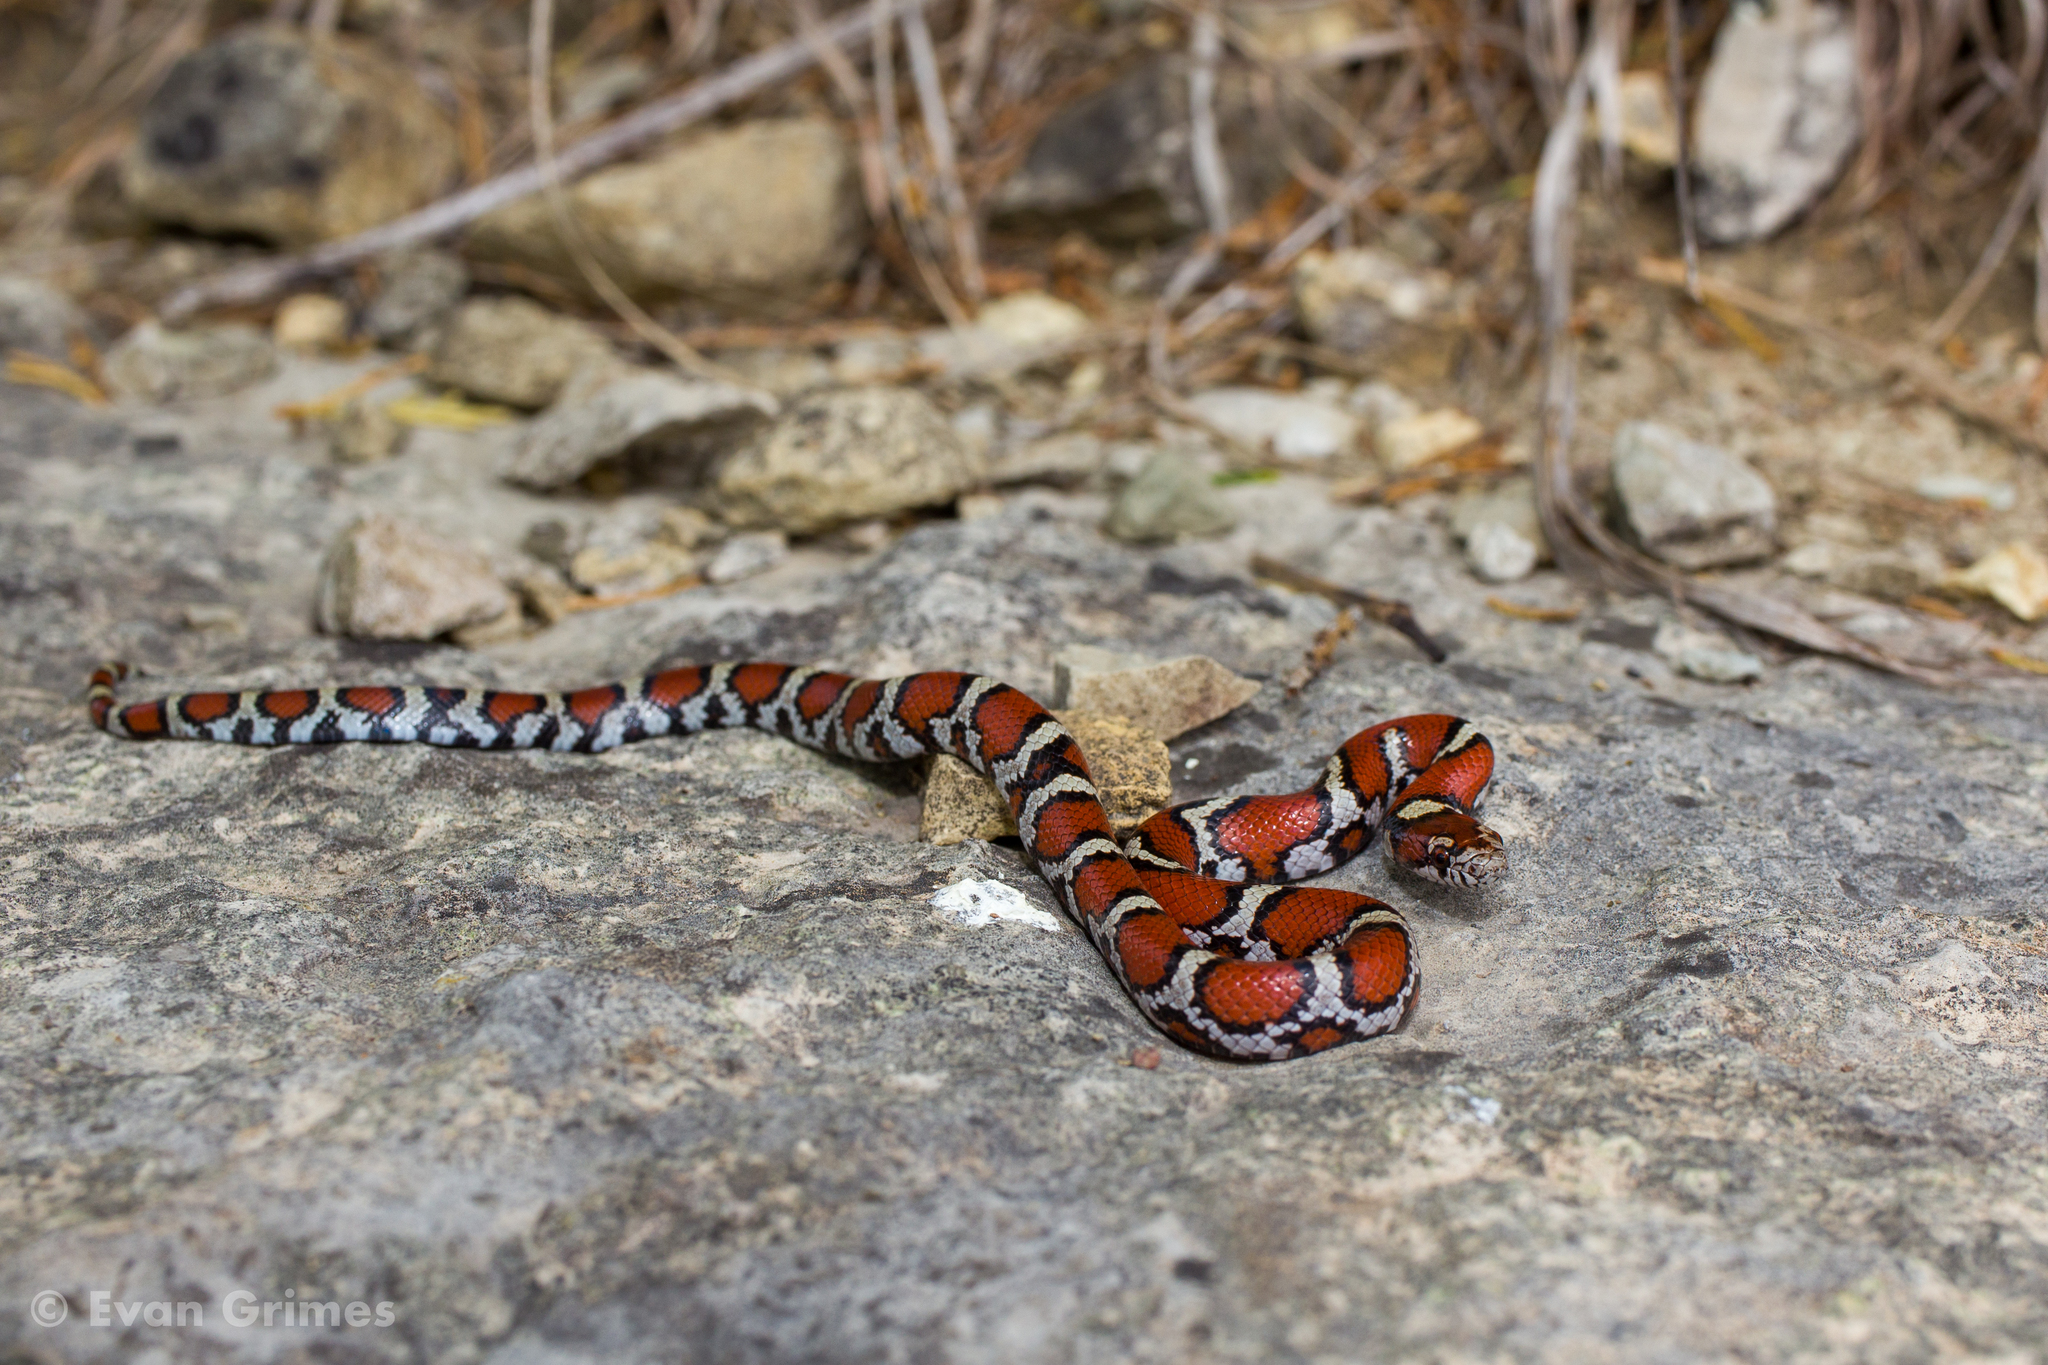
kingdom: Animalia
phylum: Chordata
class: Squamata
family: Colubridae
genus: Lampropeltis
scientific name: Lampropeltis triangulum
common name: Eastern milksnake
